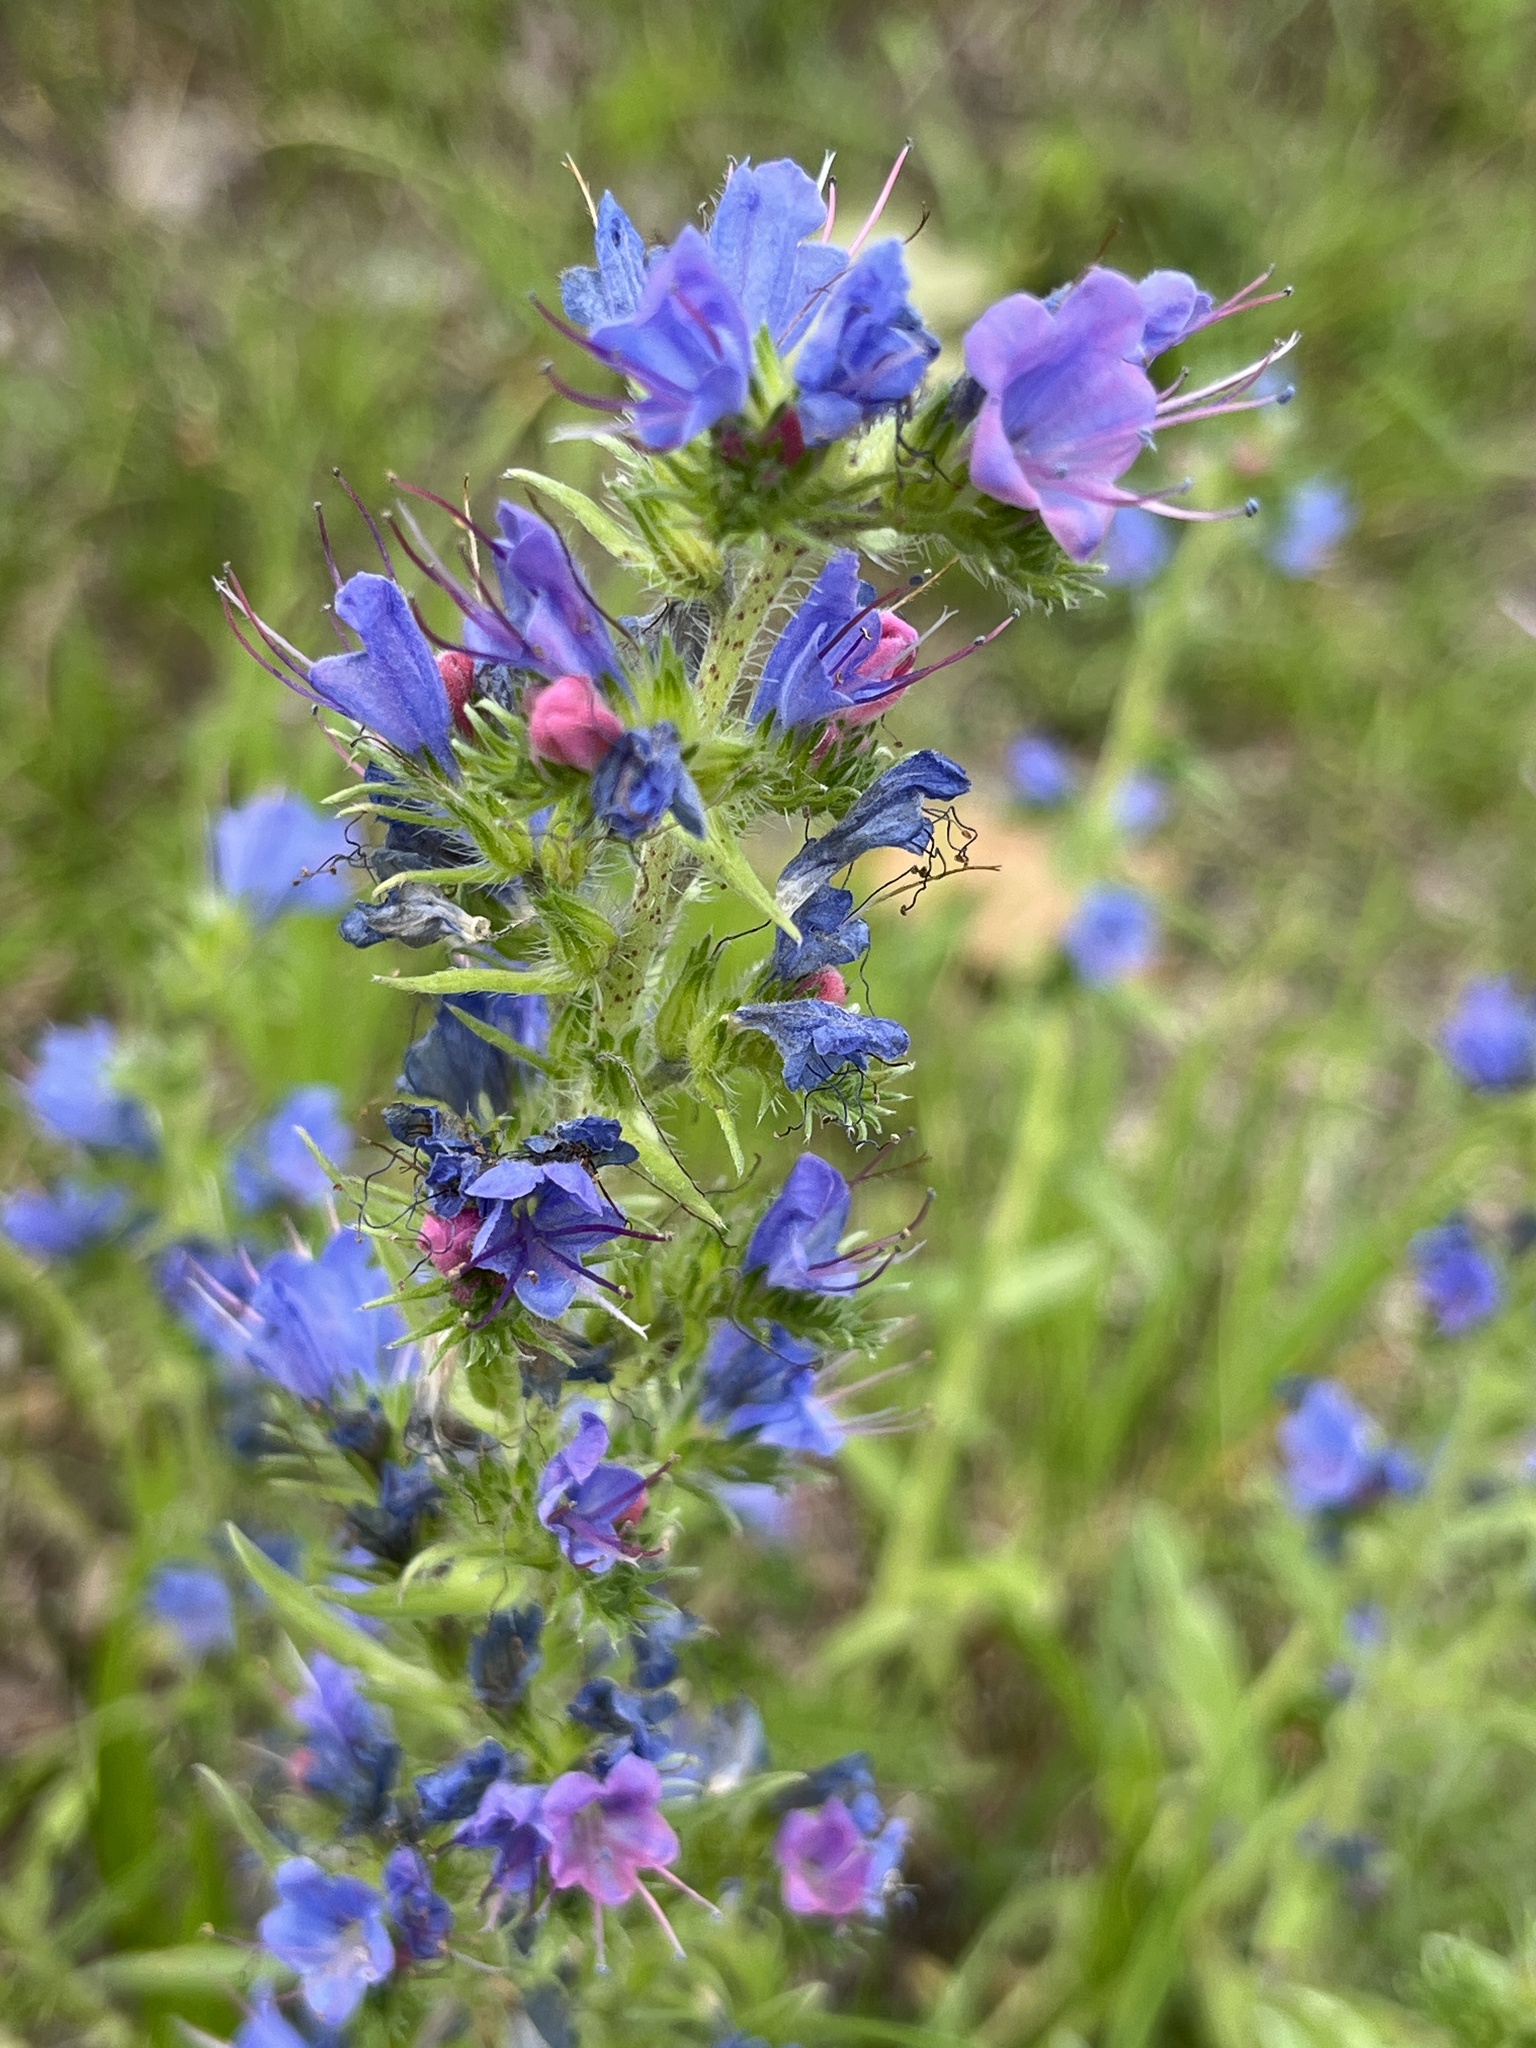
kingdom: Plantae
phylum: Tracheophyta
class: Magnoliopsida
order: Boraginales
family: Boraginaceae
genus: Echium
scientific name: Echium vulgare
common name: Common viper's bugloss
